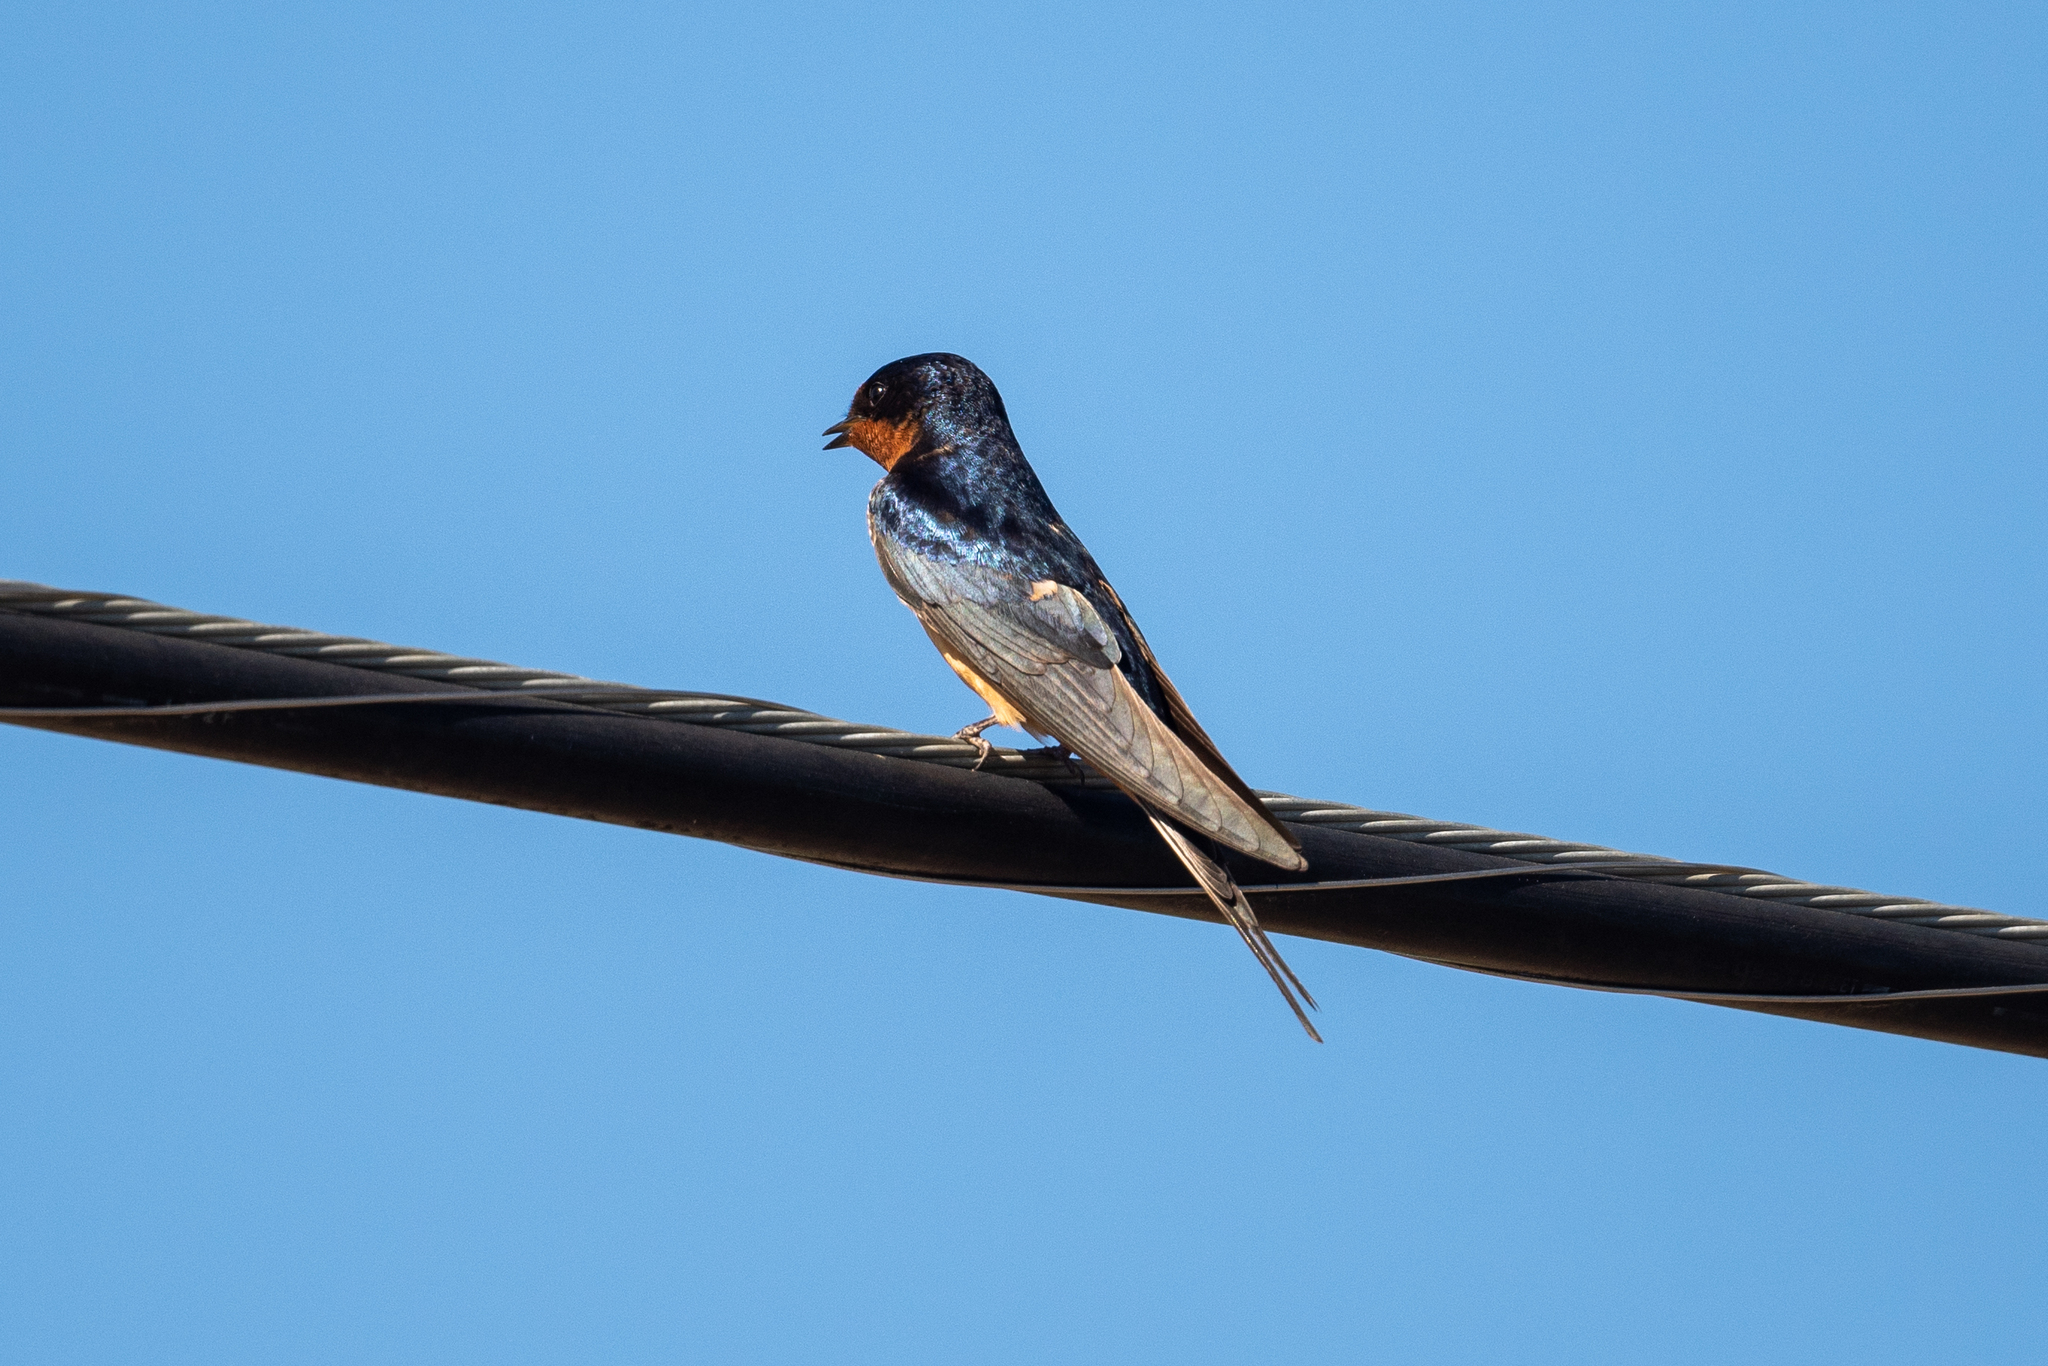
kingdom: Animalia
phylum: Chordata
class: Aves
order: Passeriformes
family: Hirundinidae
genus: Hirundo
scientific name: Hirundo rustica
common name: Barn swallow
